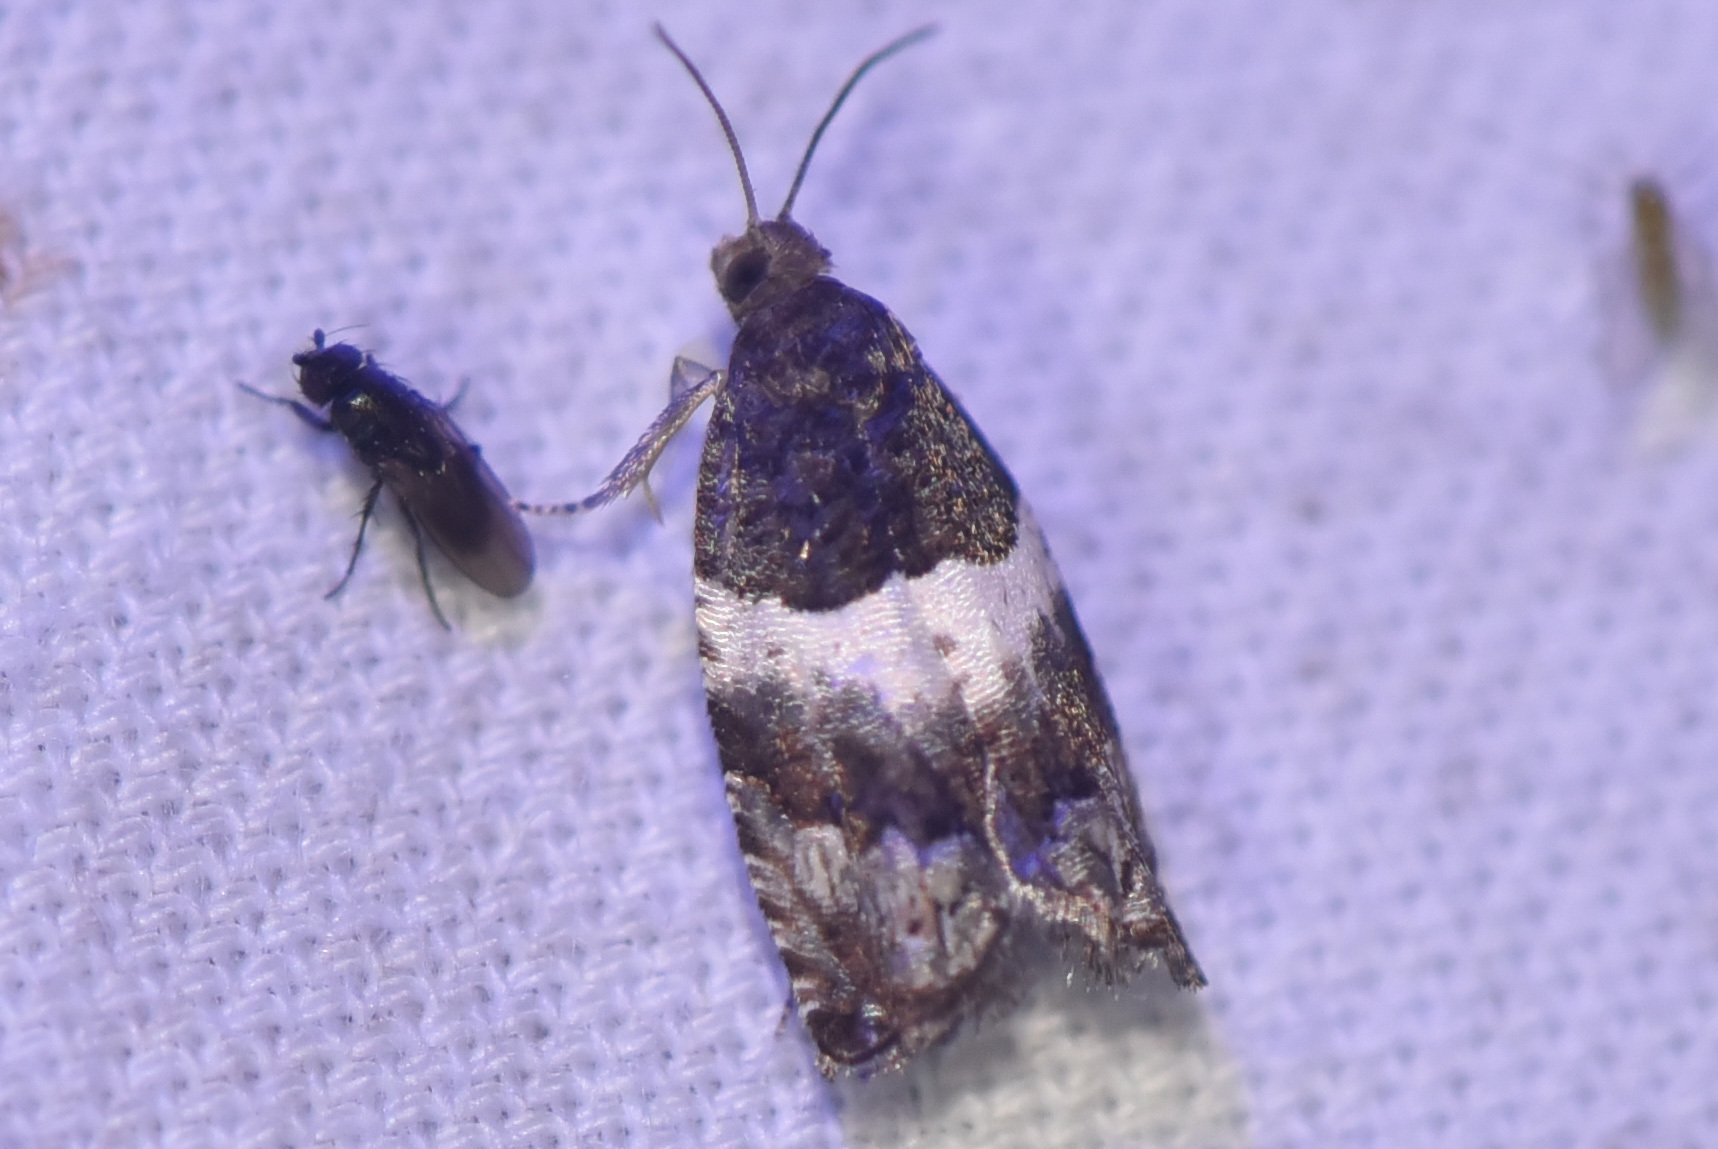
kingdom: Animalia
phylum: Arthropoda
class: Insecta
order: Lepidoptera
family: Tortricidae
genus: Gypsonoma
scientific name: Gypsonoma substitutionis
